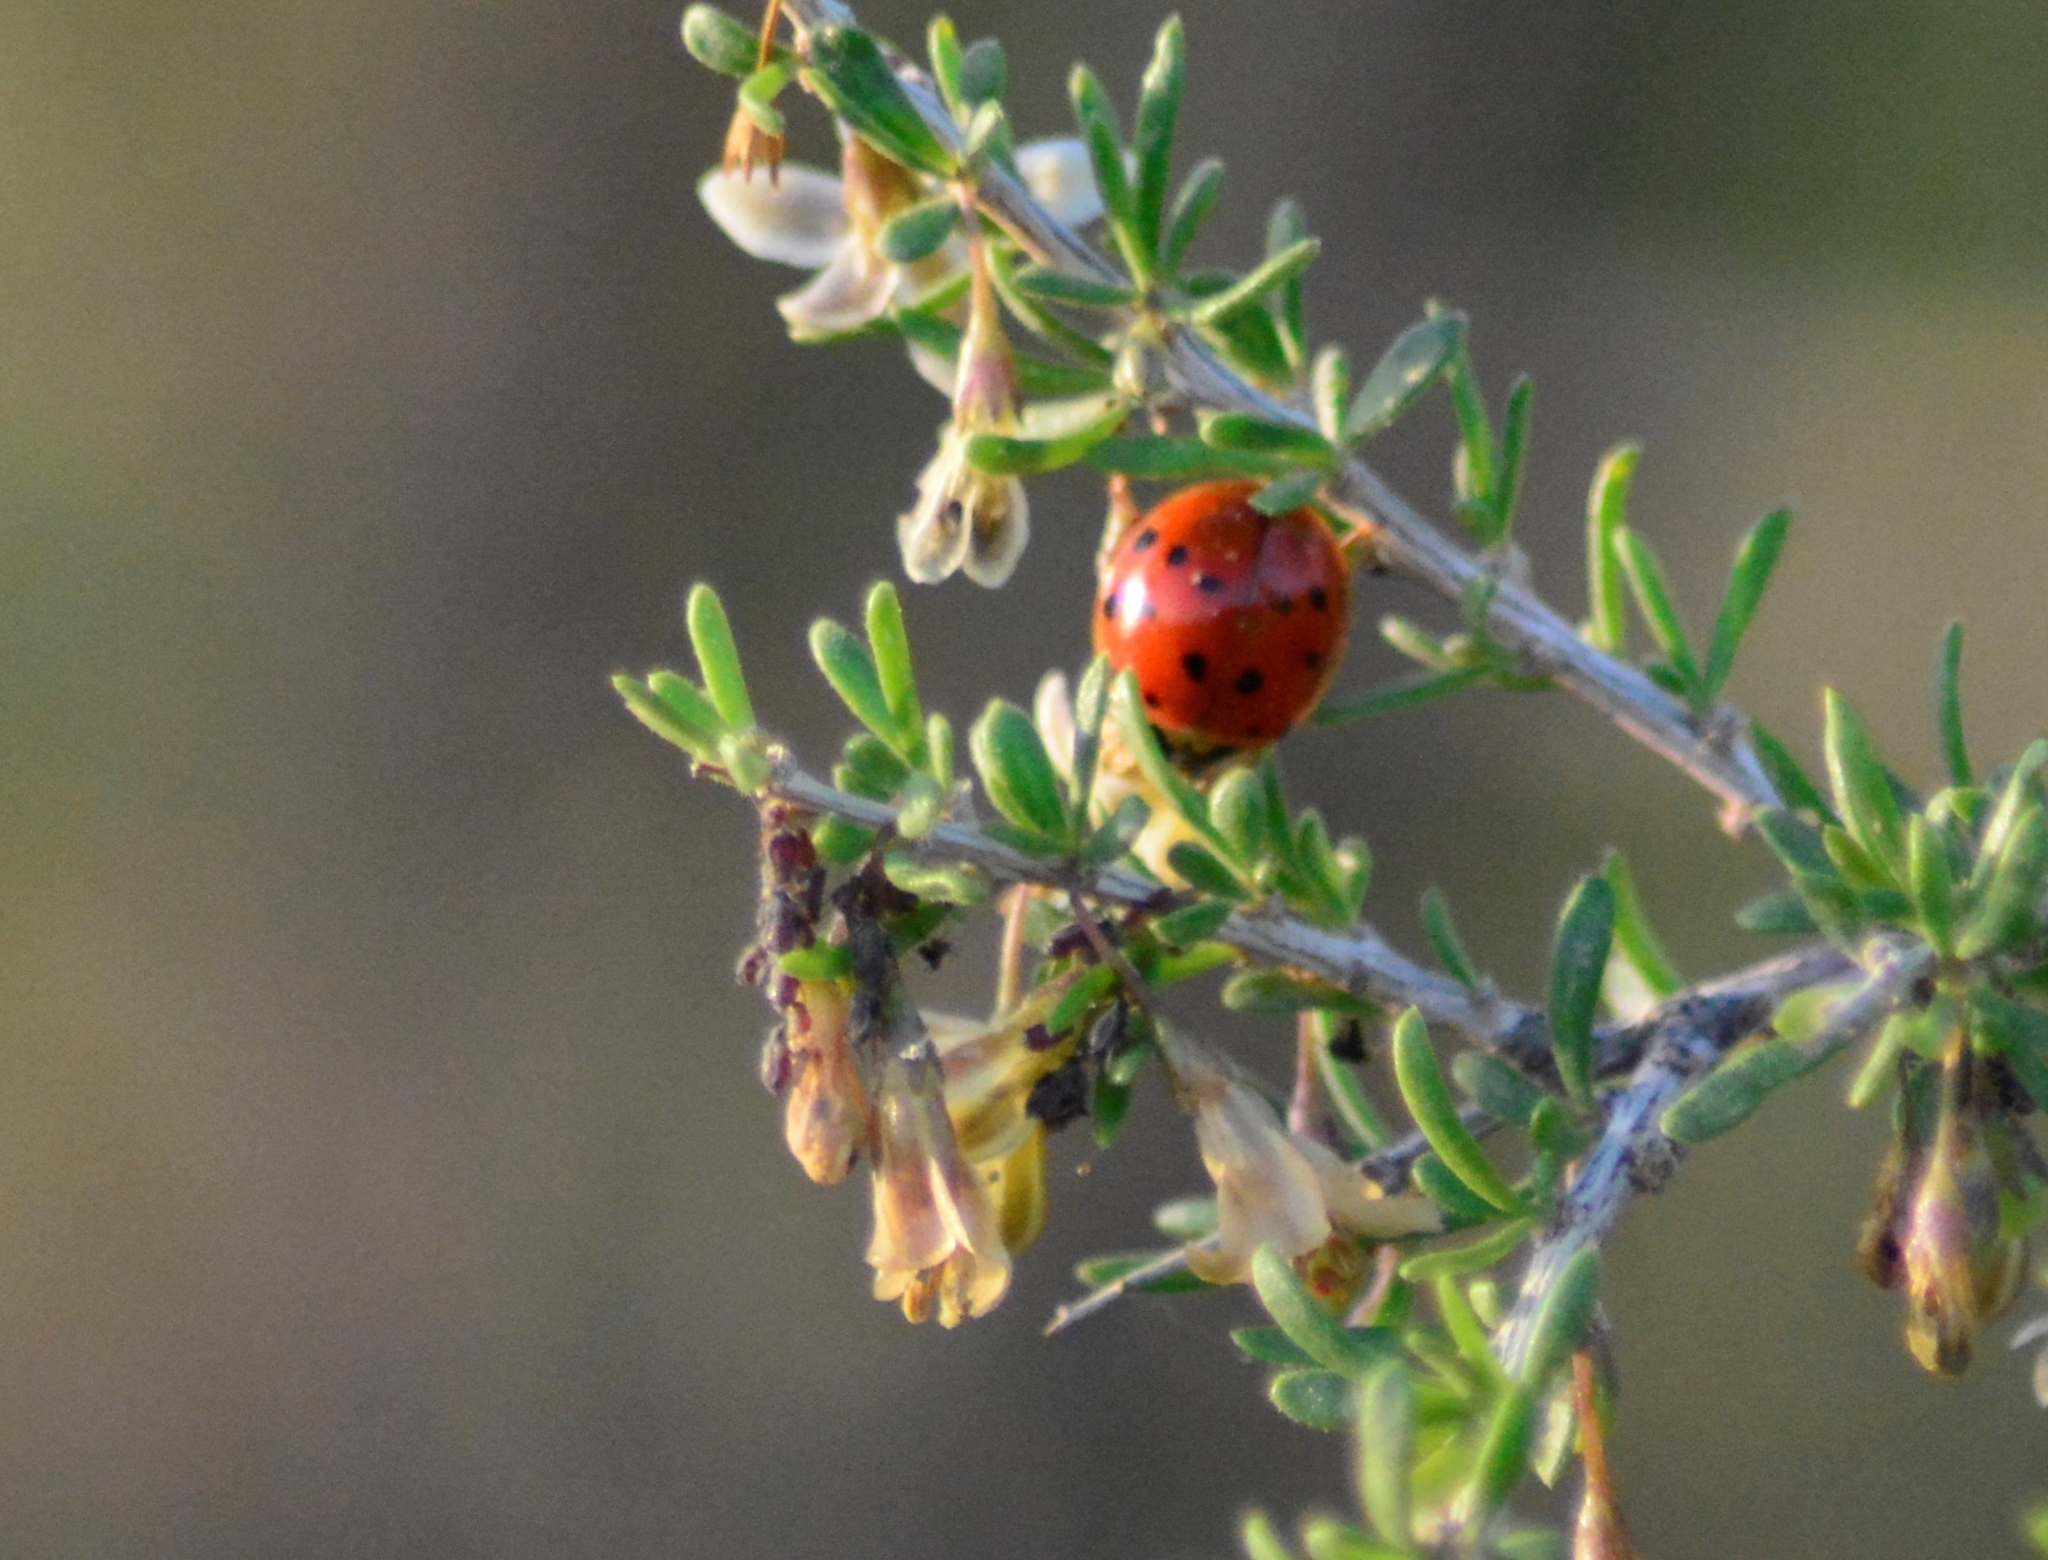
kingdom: Animalia
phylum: Arthropoda
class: Insecta
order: Coleoptera
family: Coccinellidae
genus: Harmonia
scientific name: Harmonia axyridis
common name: Harlequin ladybird
